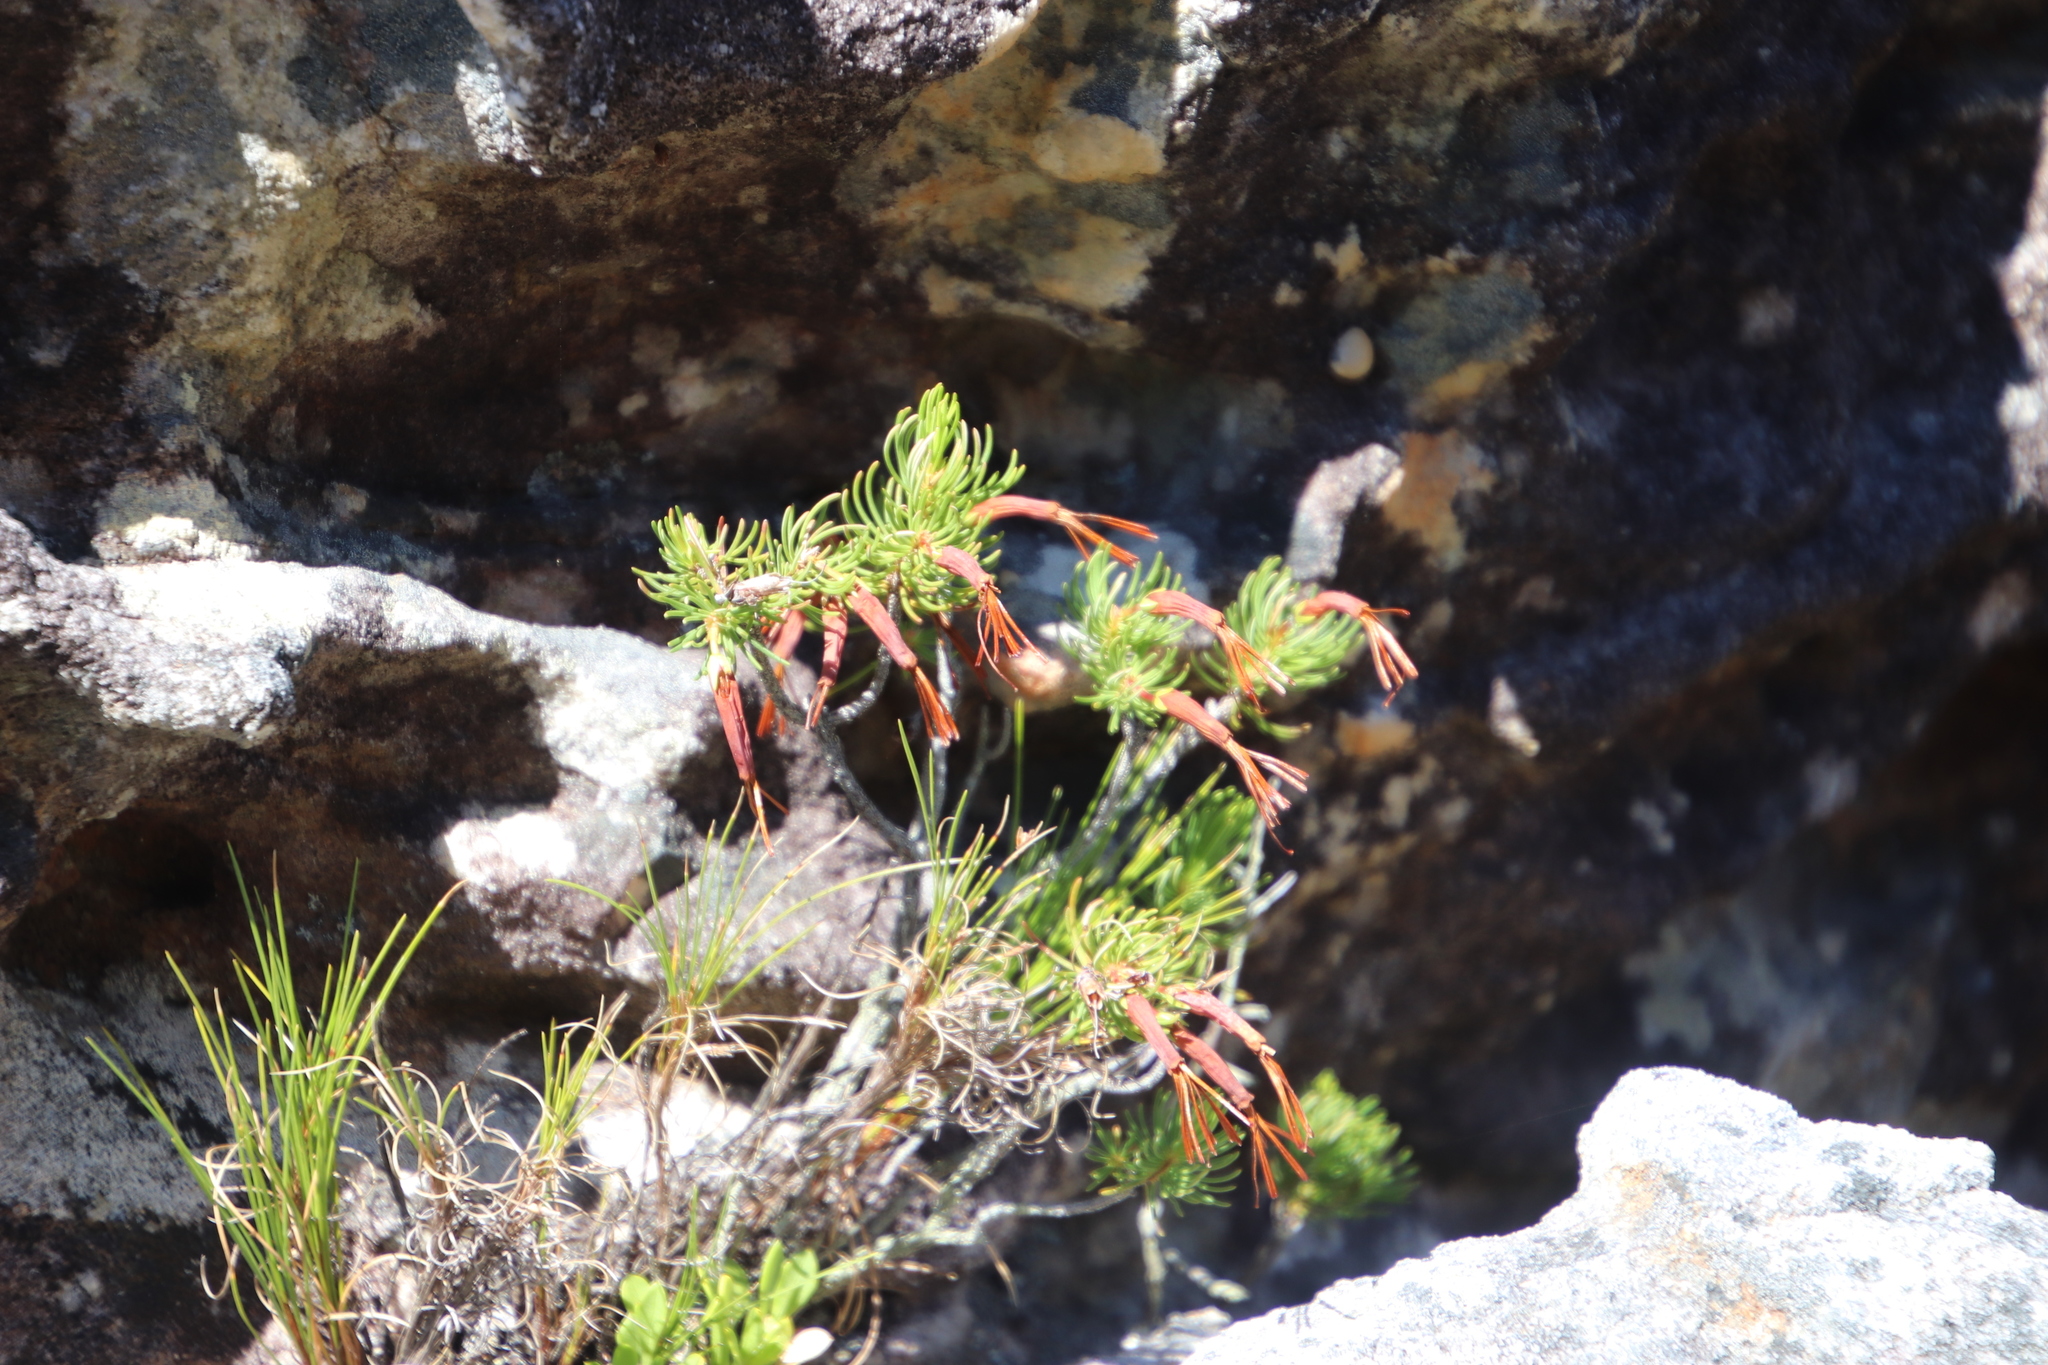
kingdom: Plantae
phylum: Tracheophyta
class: Magnoliopsida
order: Ericales
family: Ericaceae
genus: Erica
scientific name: Erica plukenetii
